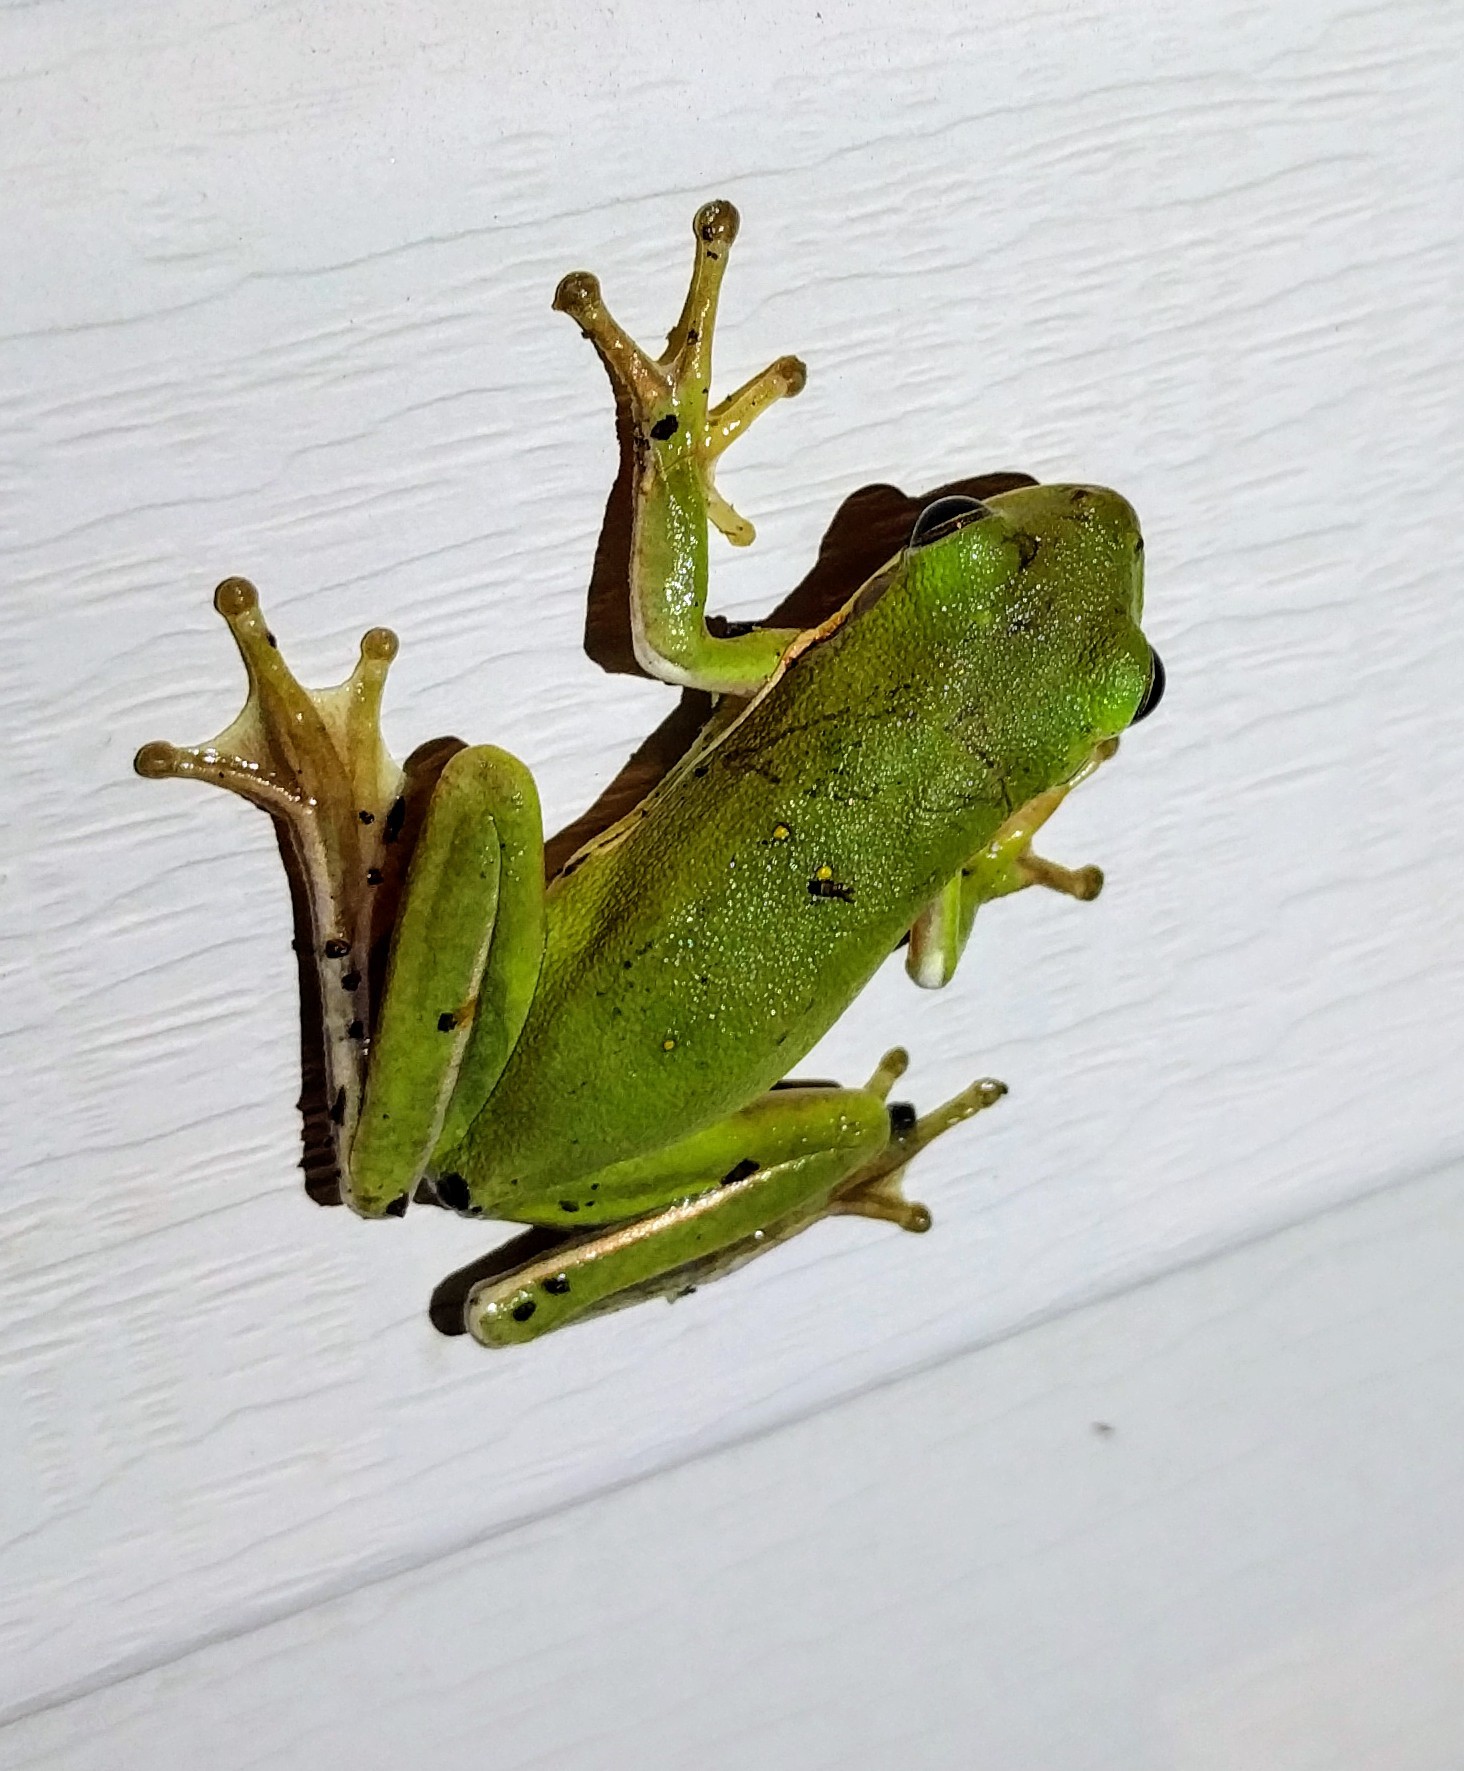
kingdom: Animalia
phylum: Chordata
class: Amphibia
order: Anura
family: Hylidae
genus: Dryophytes
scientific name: Dryophytes cinereus
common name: Green treefrog
